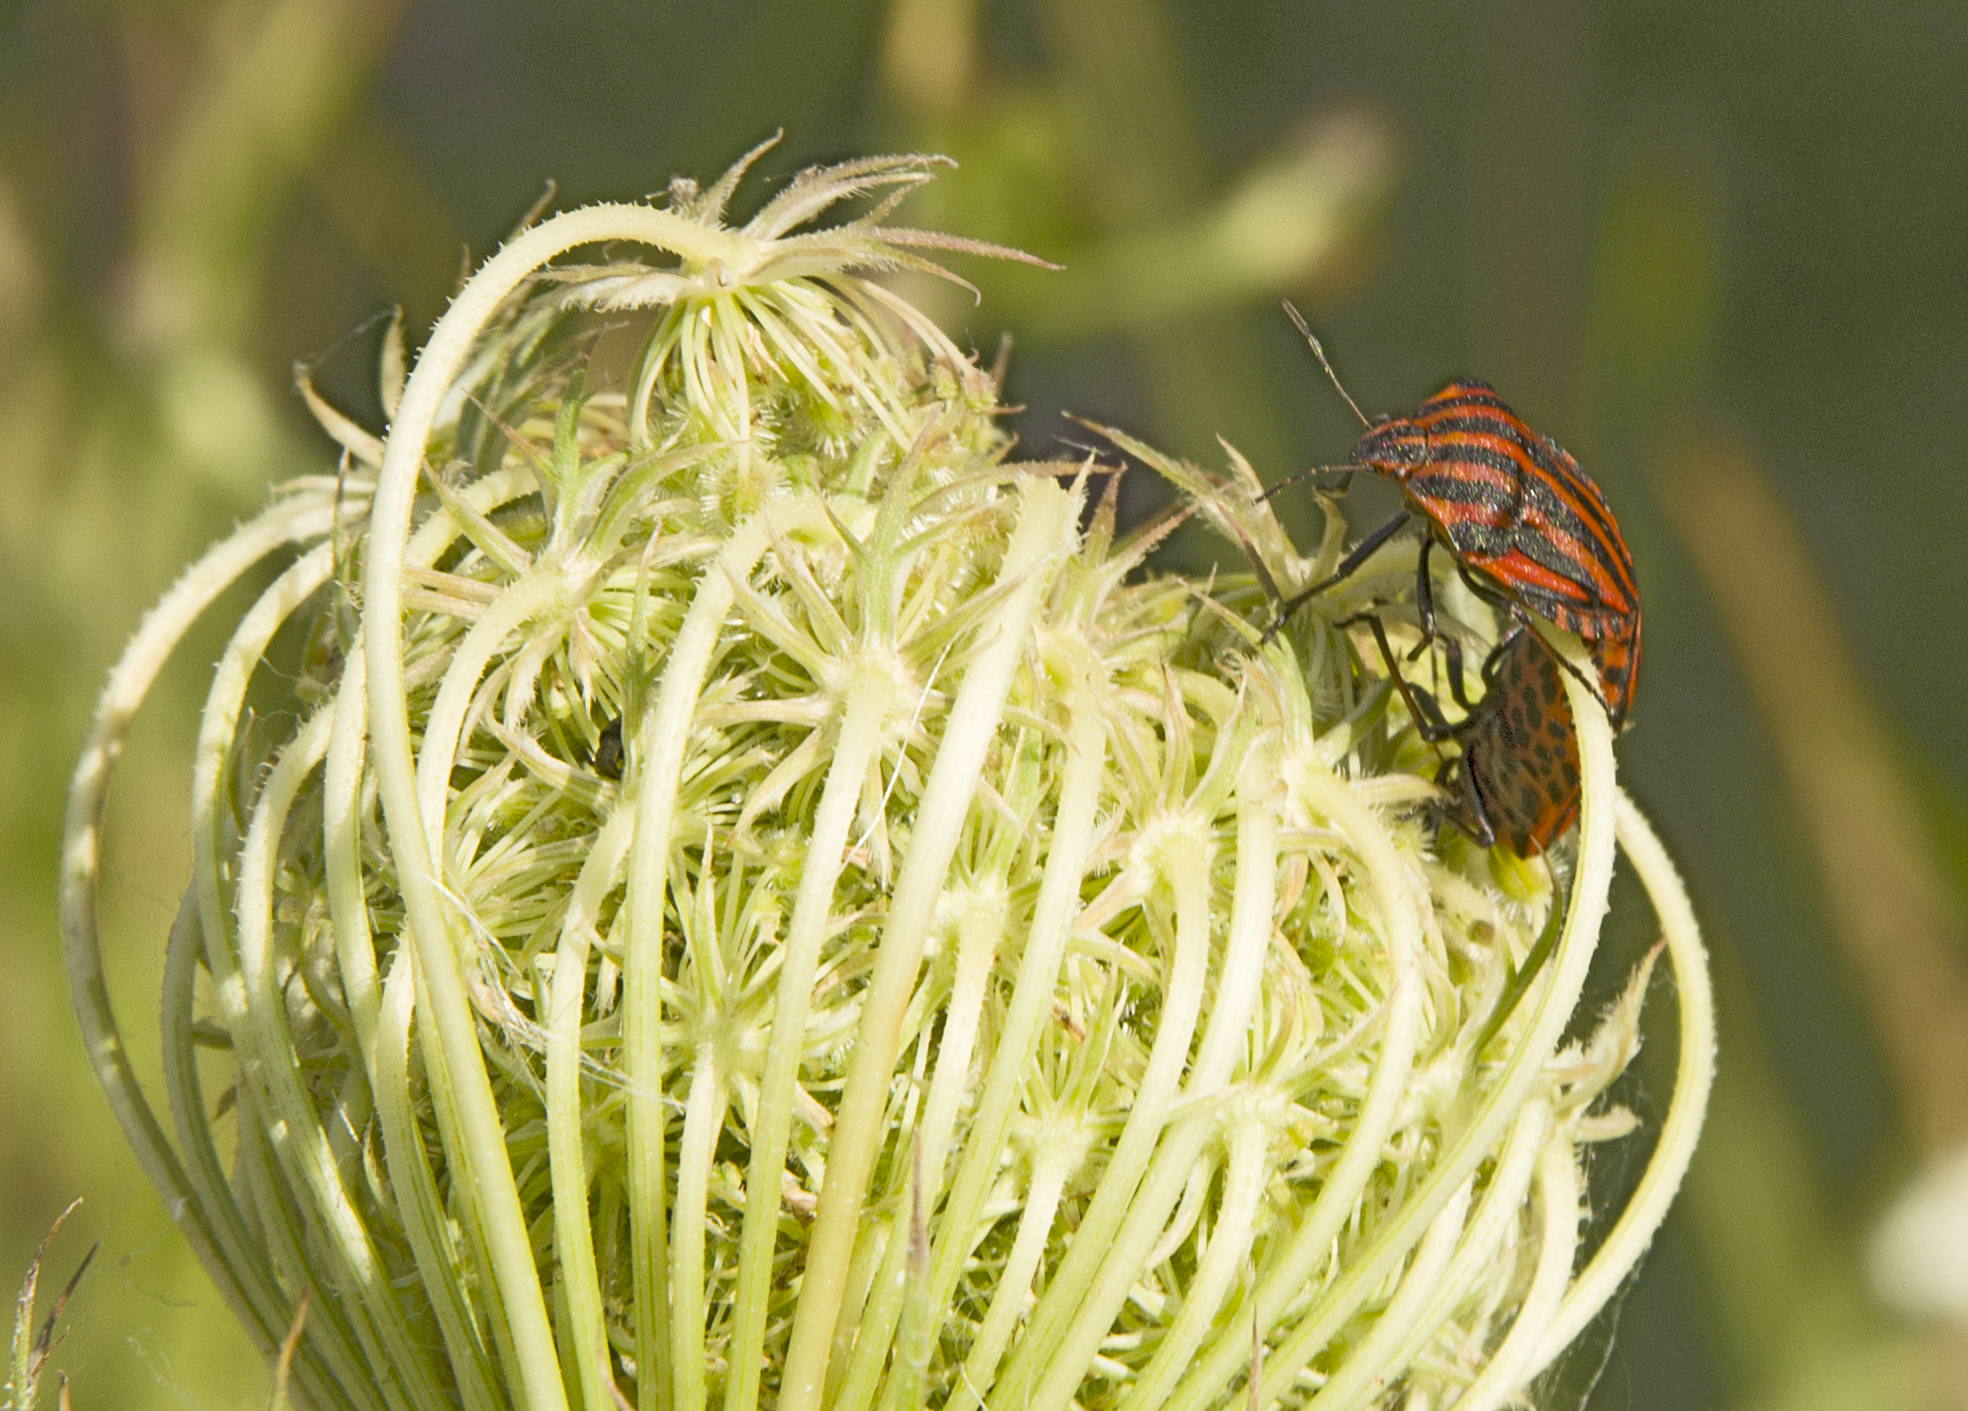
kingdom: Animalia
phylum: Arthropoda
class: Insecta
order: Hemiptera
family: Pentatomidae
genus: Graphosoma
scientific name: Graphosoma italicum
